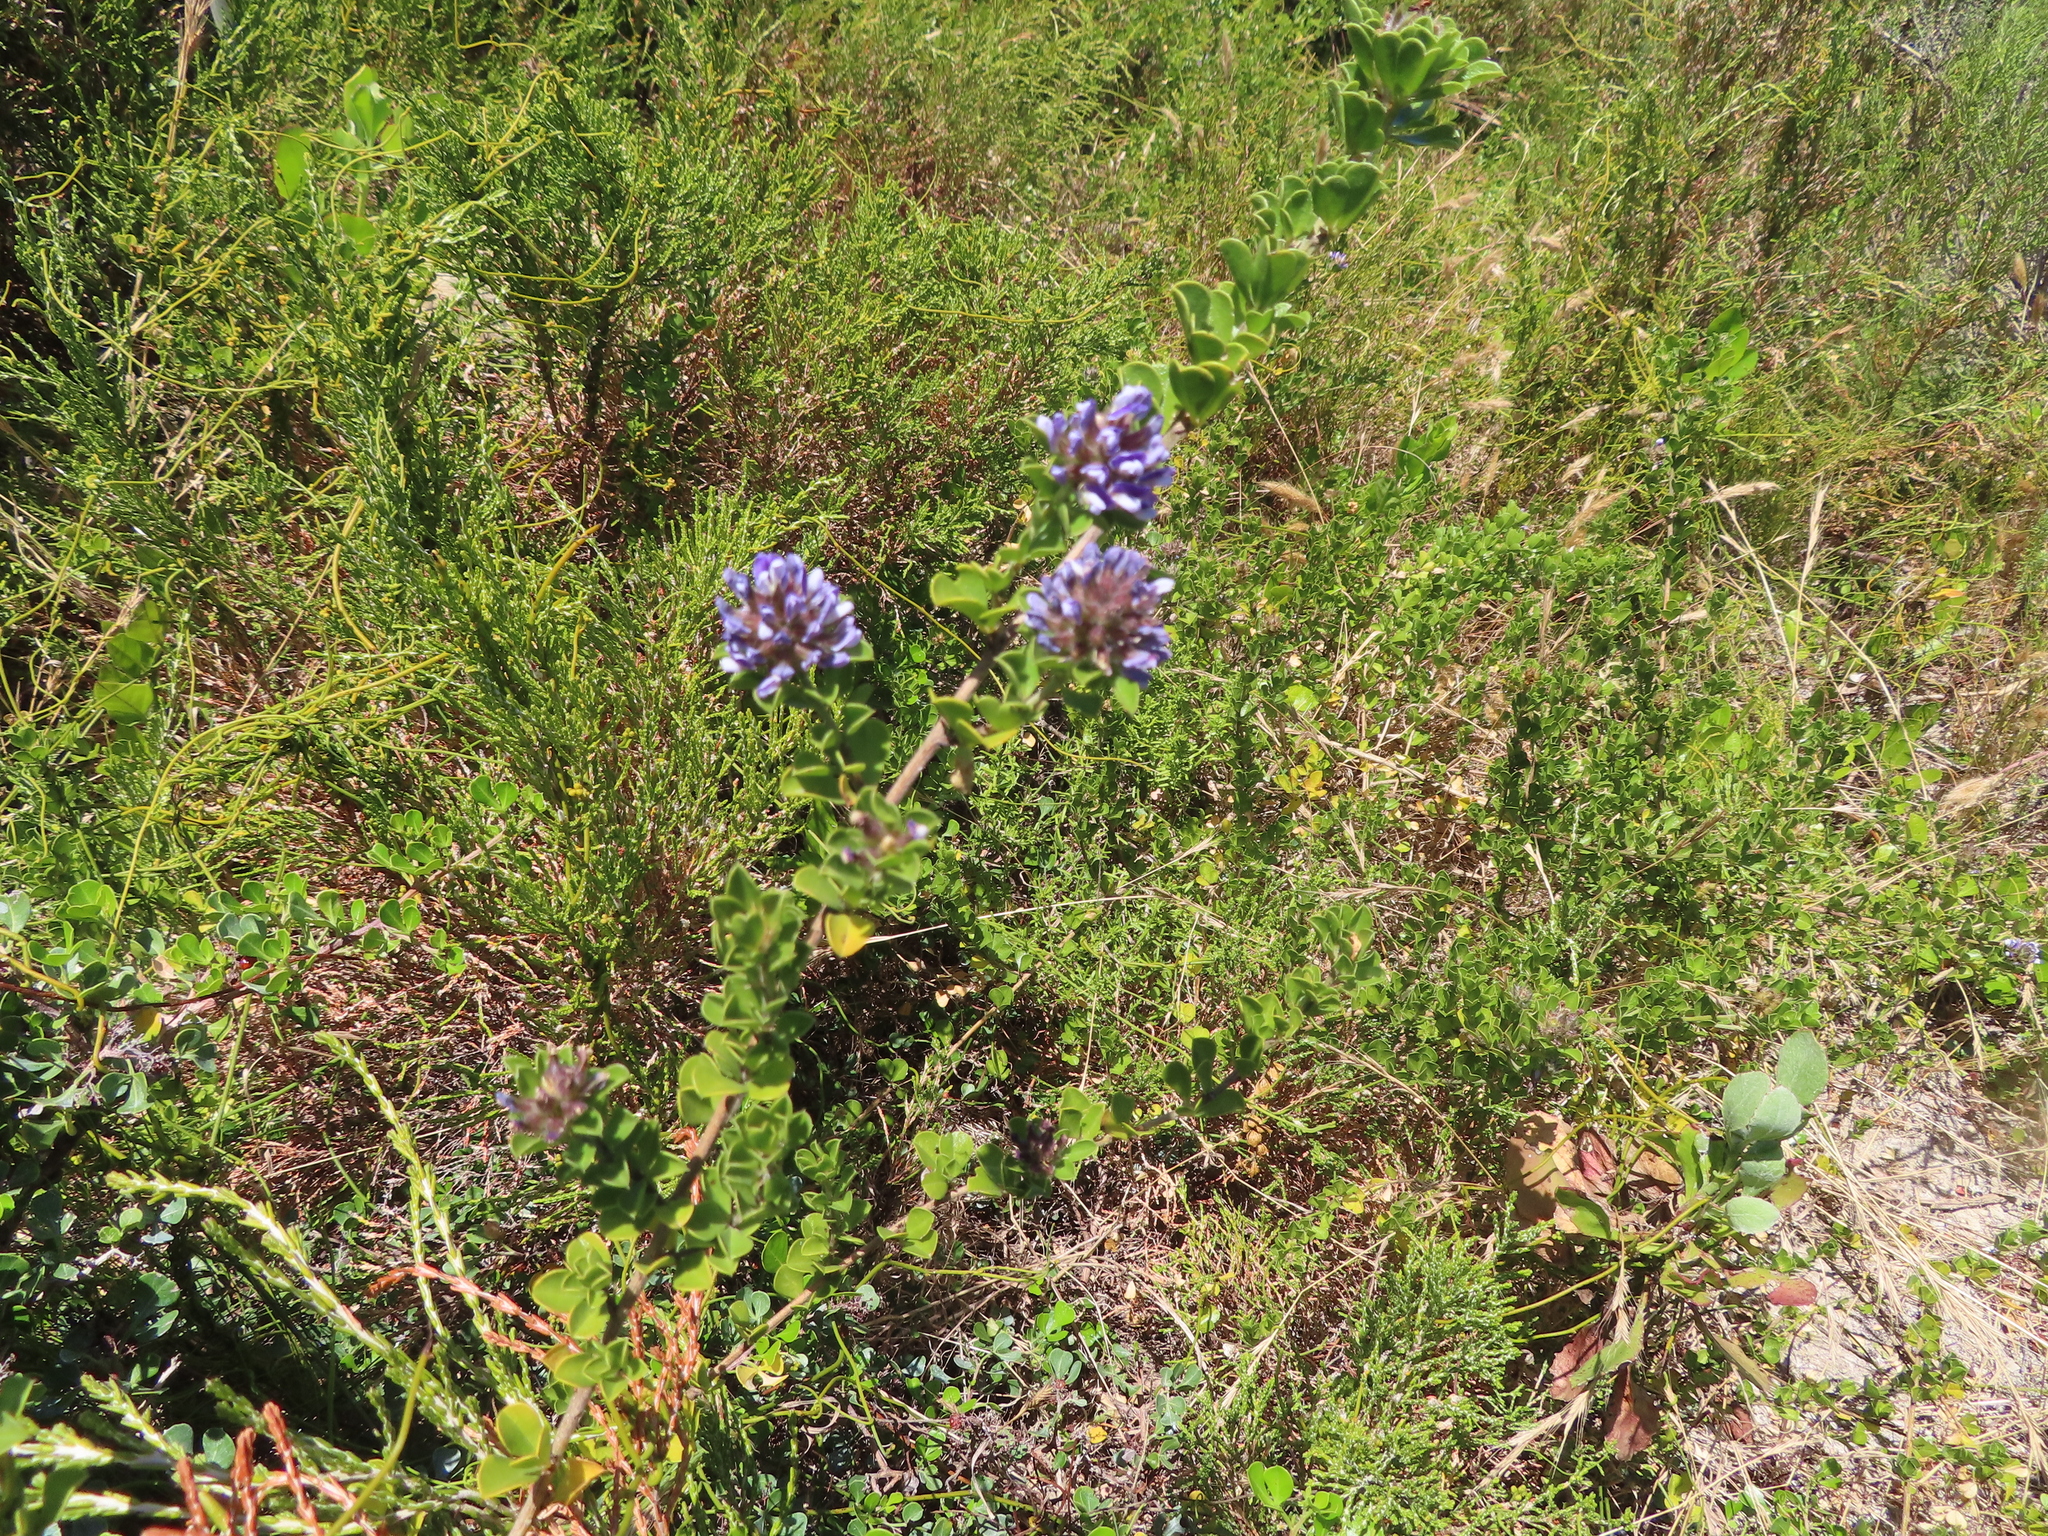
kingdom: Plantae
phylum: Tracheophyta
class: Magnoliopsida
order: Fabales
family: Fabaceae
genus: Psoralea
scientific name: Psoralea bracteolata
